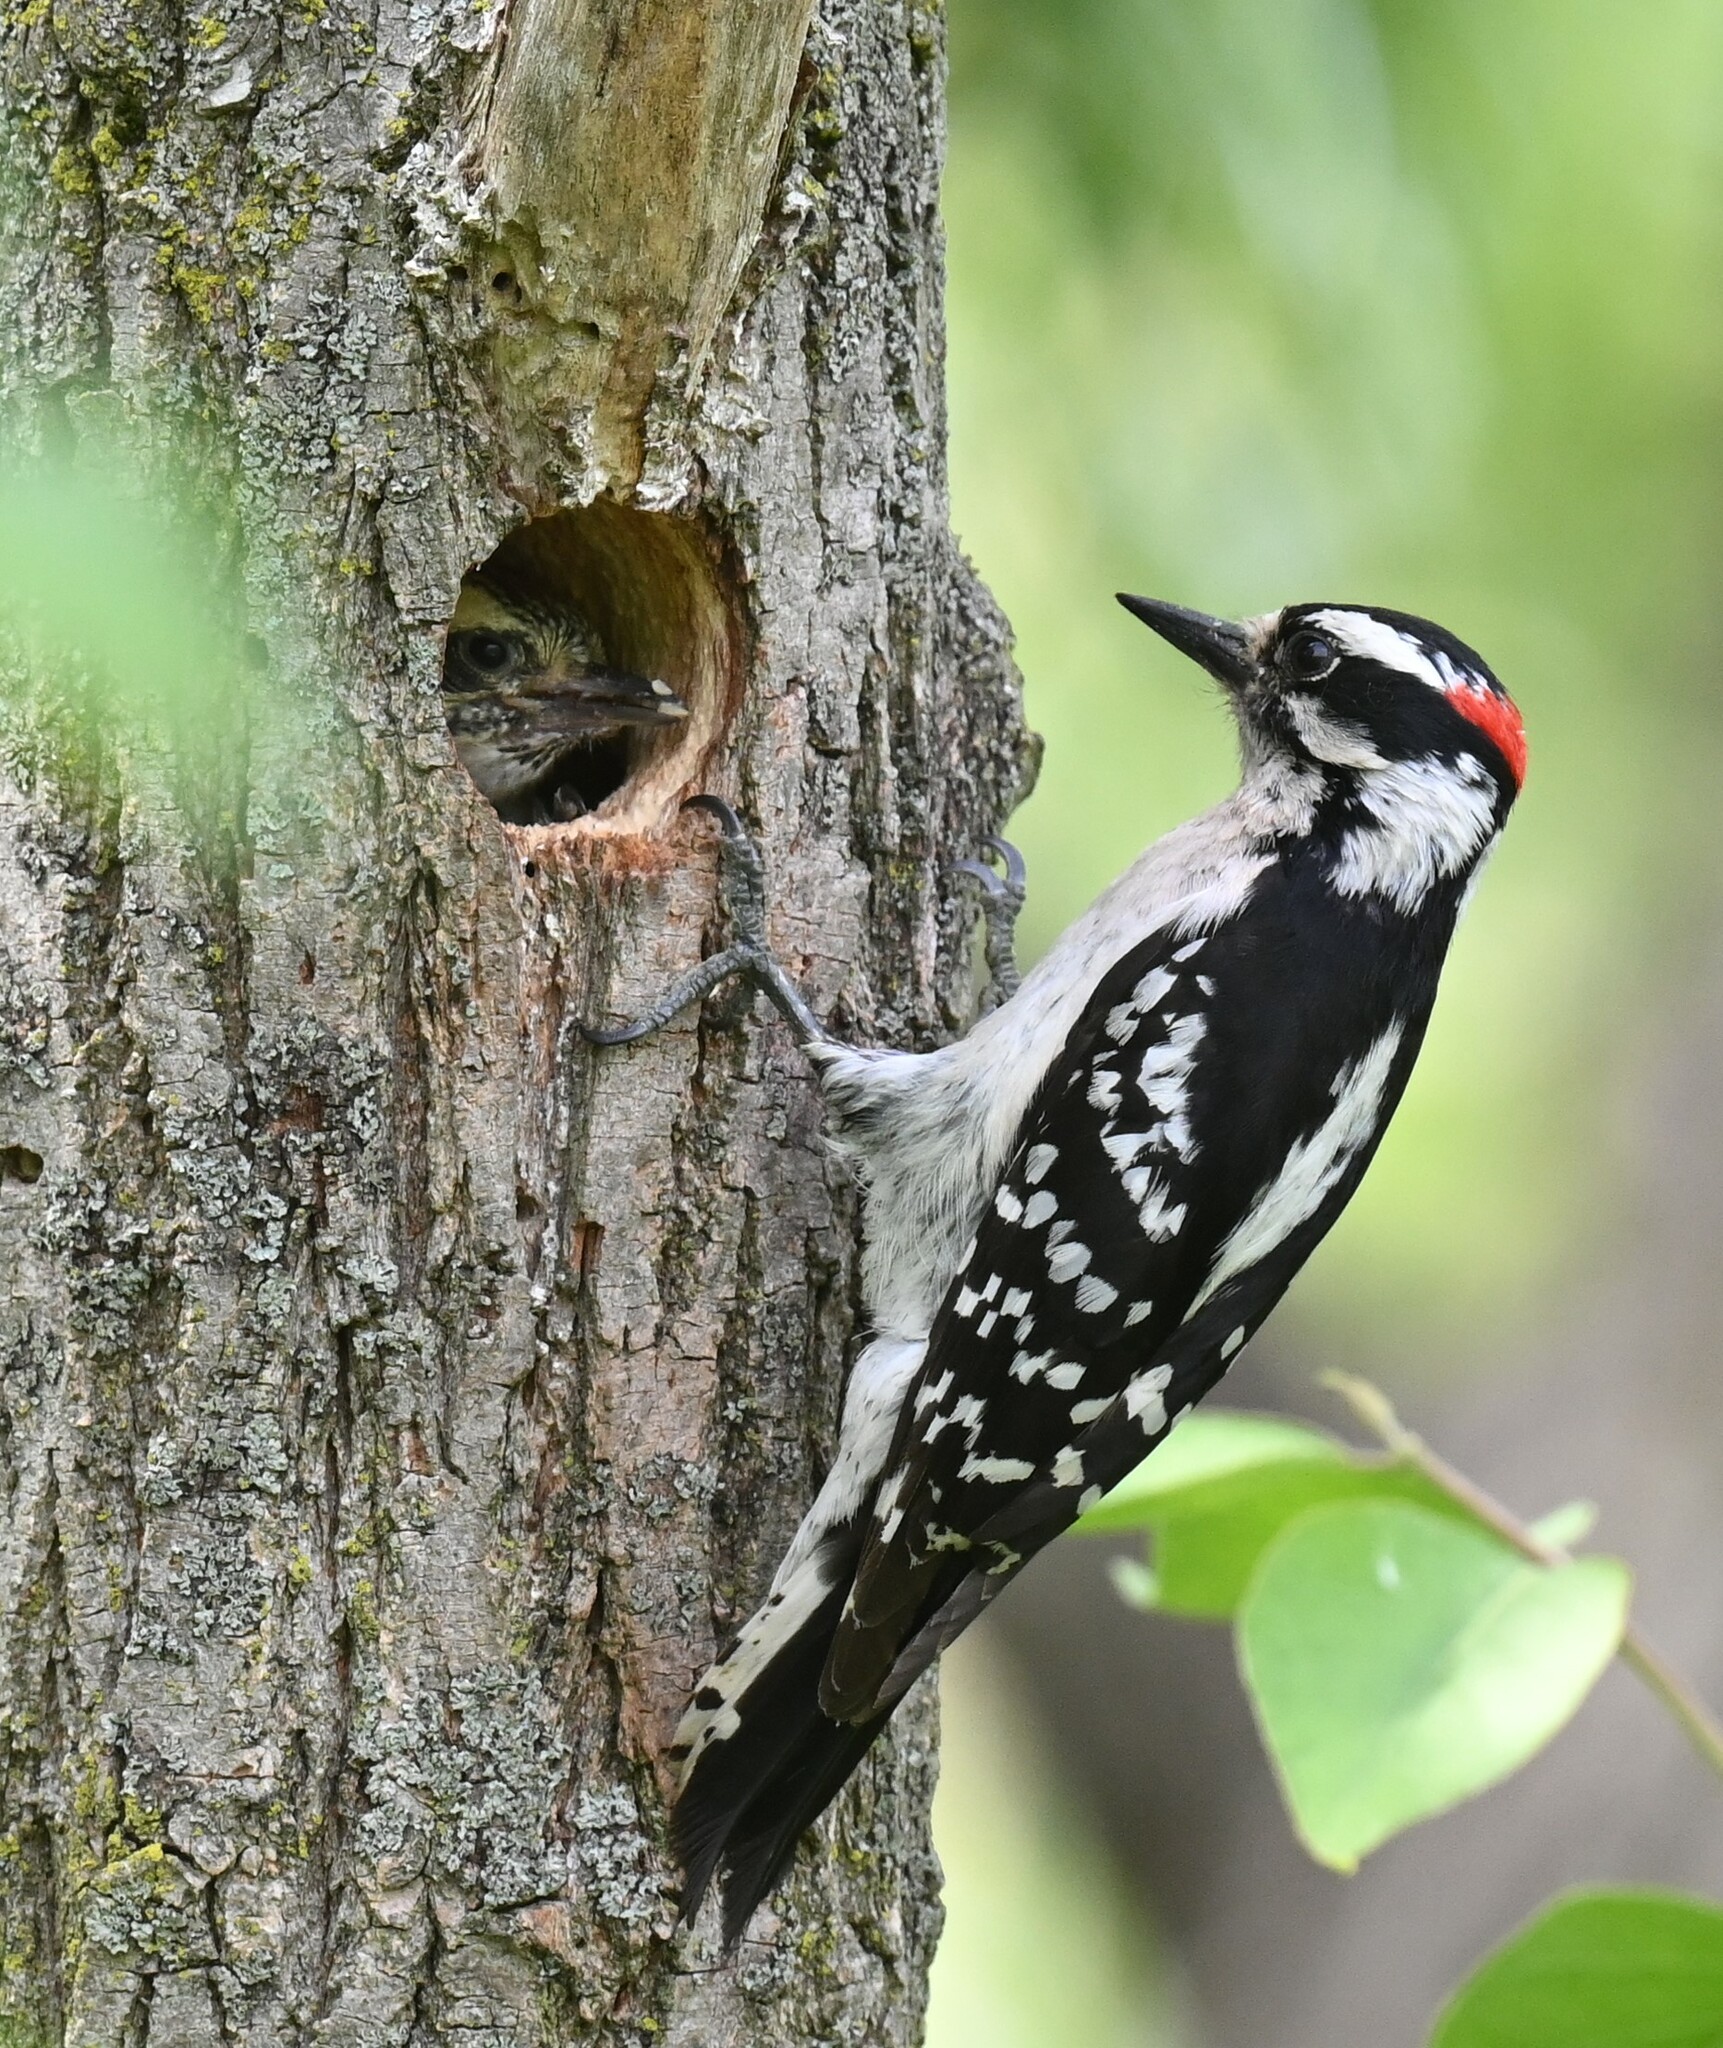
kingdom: Animalia
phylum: Chordata
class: Aves
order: Piciformes
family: Picidae
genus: Dryobates
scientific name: Dryobates pubescens
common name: Downy woodpecker
